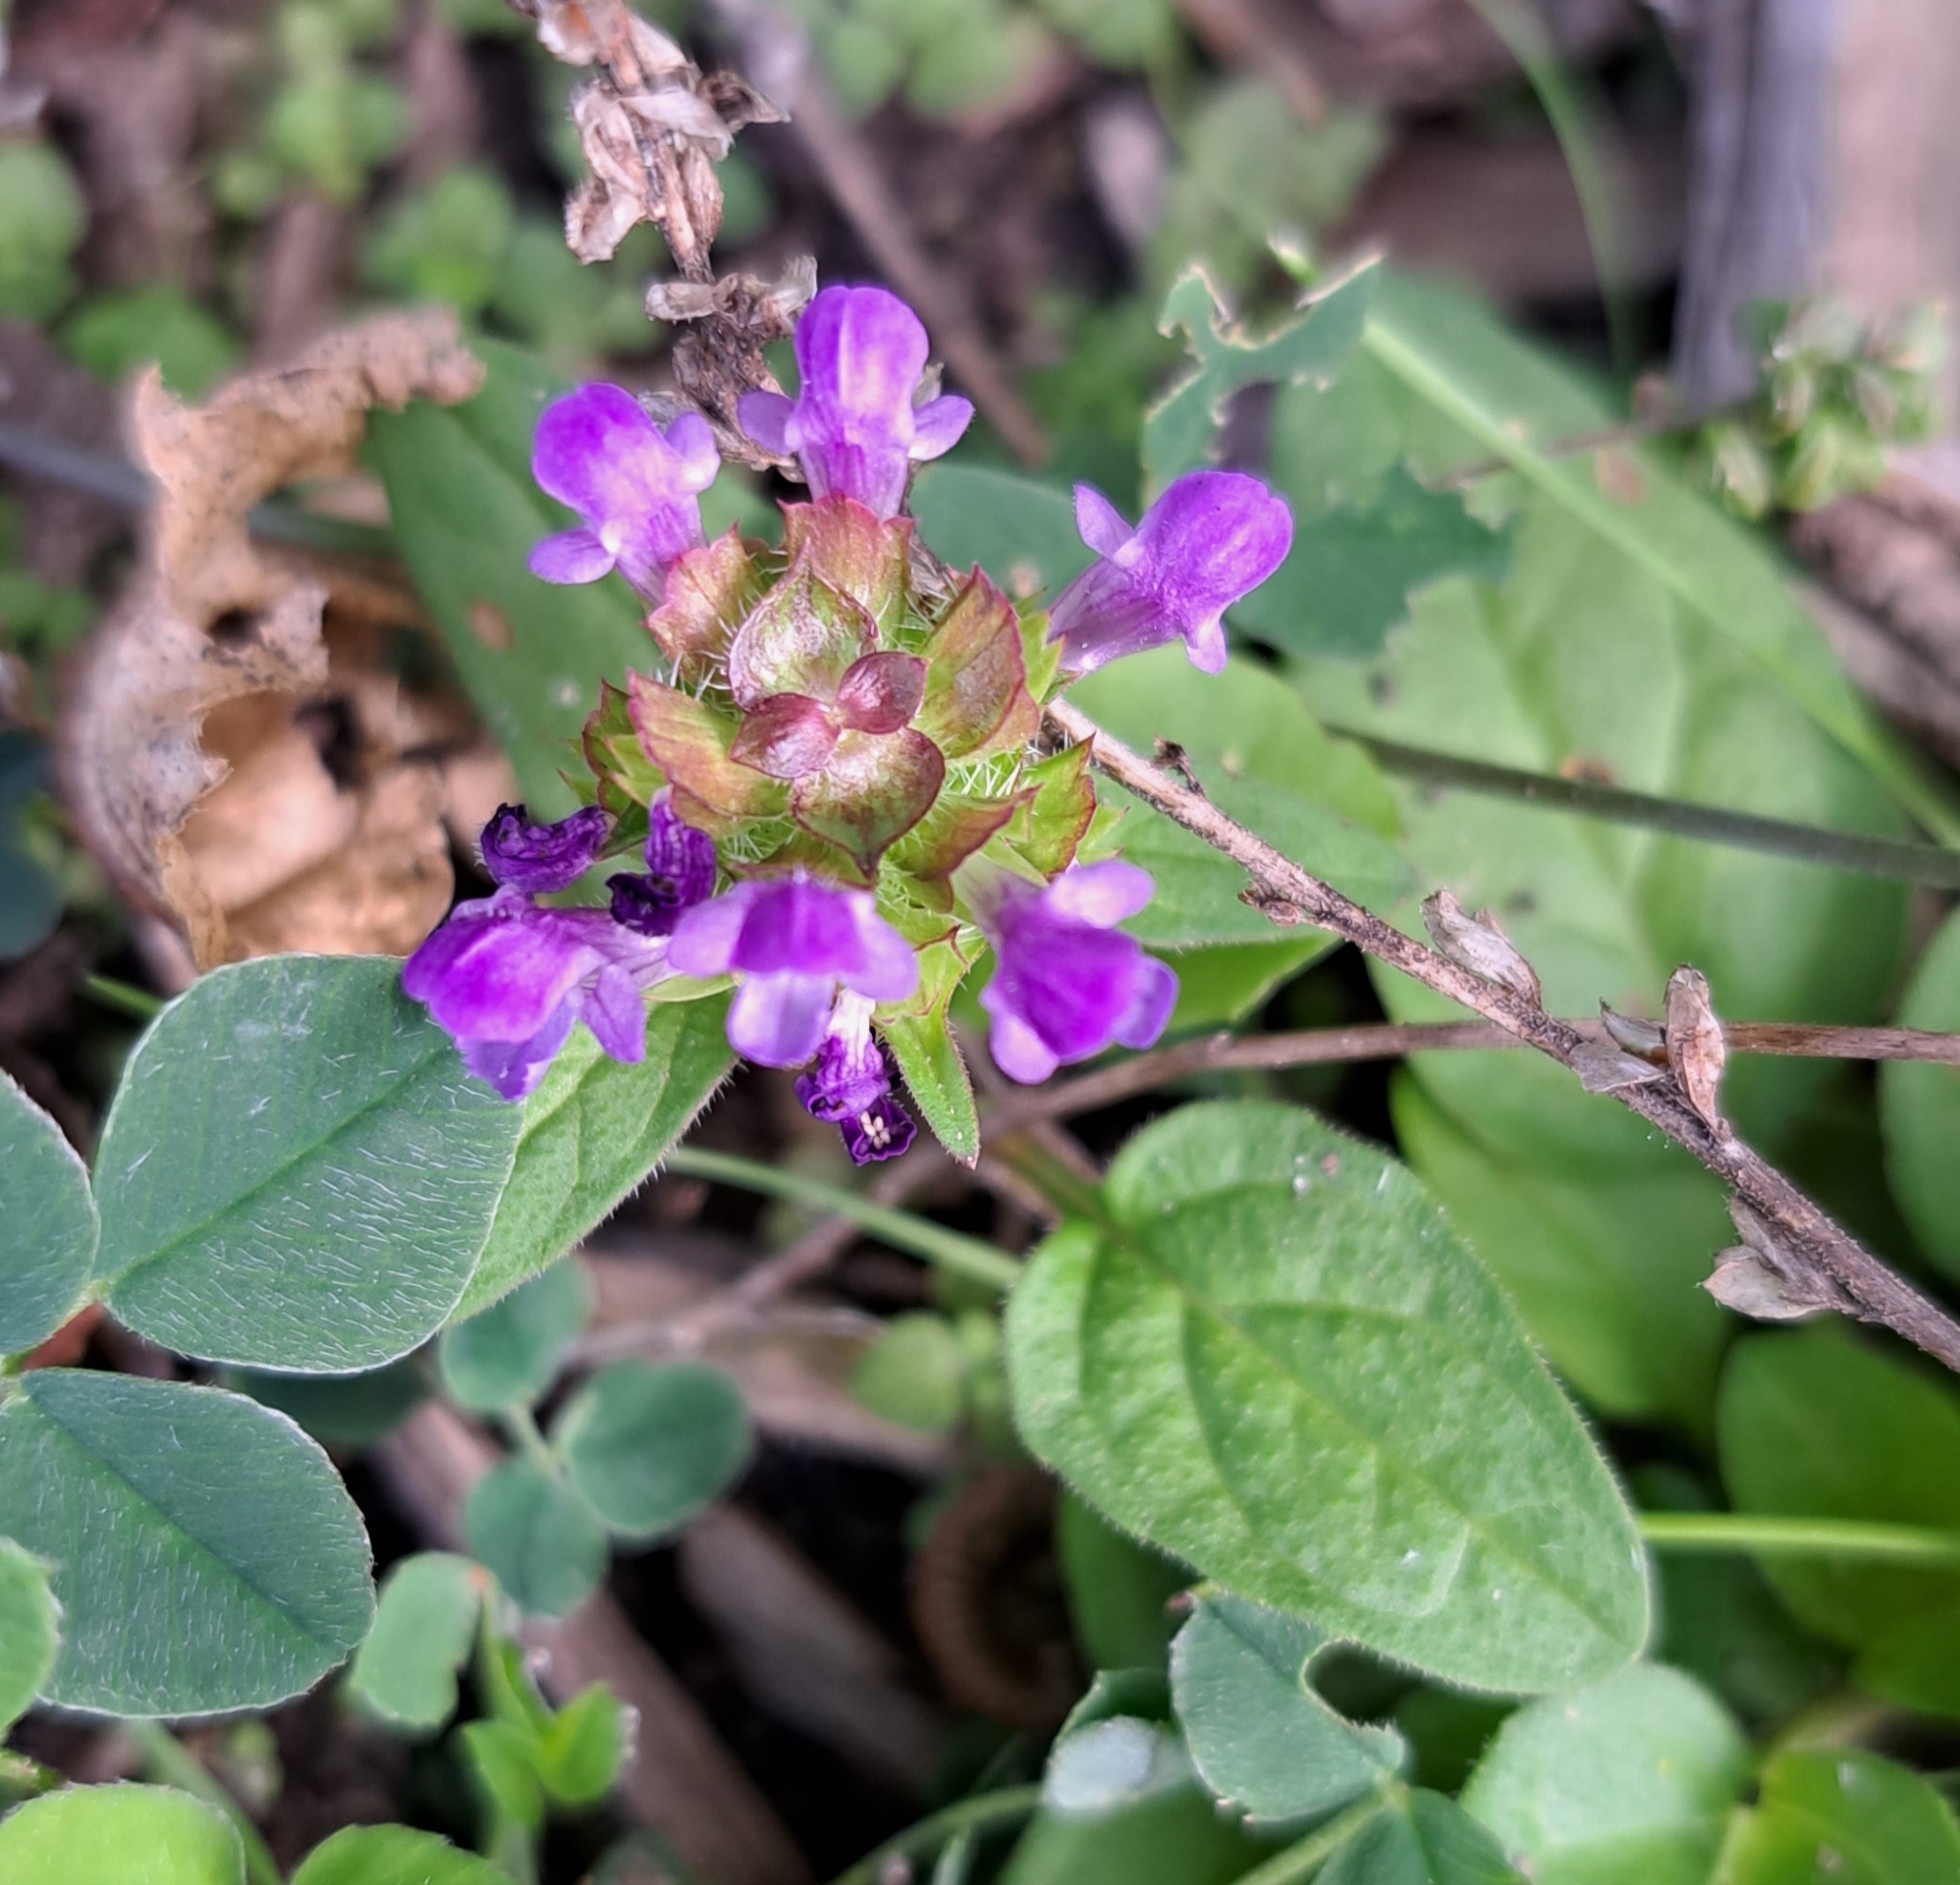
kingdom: Plantae
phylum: Tracheophyta
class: Magnoliopsida
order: Lamiales
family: Lamiaceae
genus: Prunella
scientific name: Prunella vulgaris
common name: Heal-all
